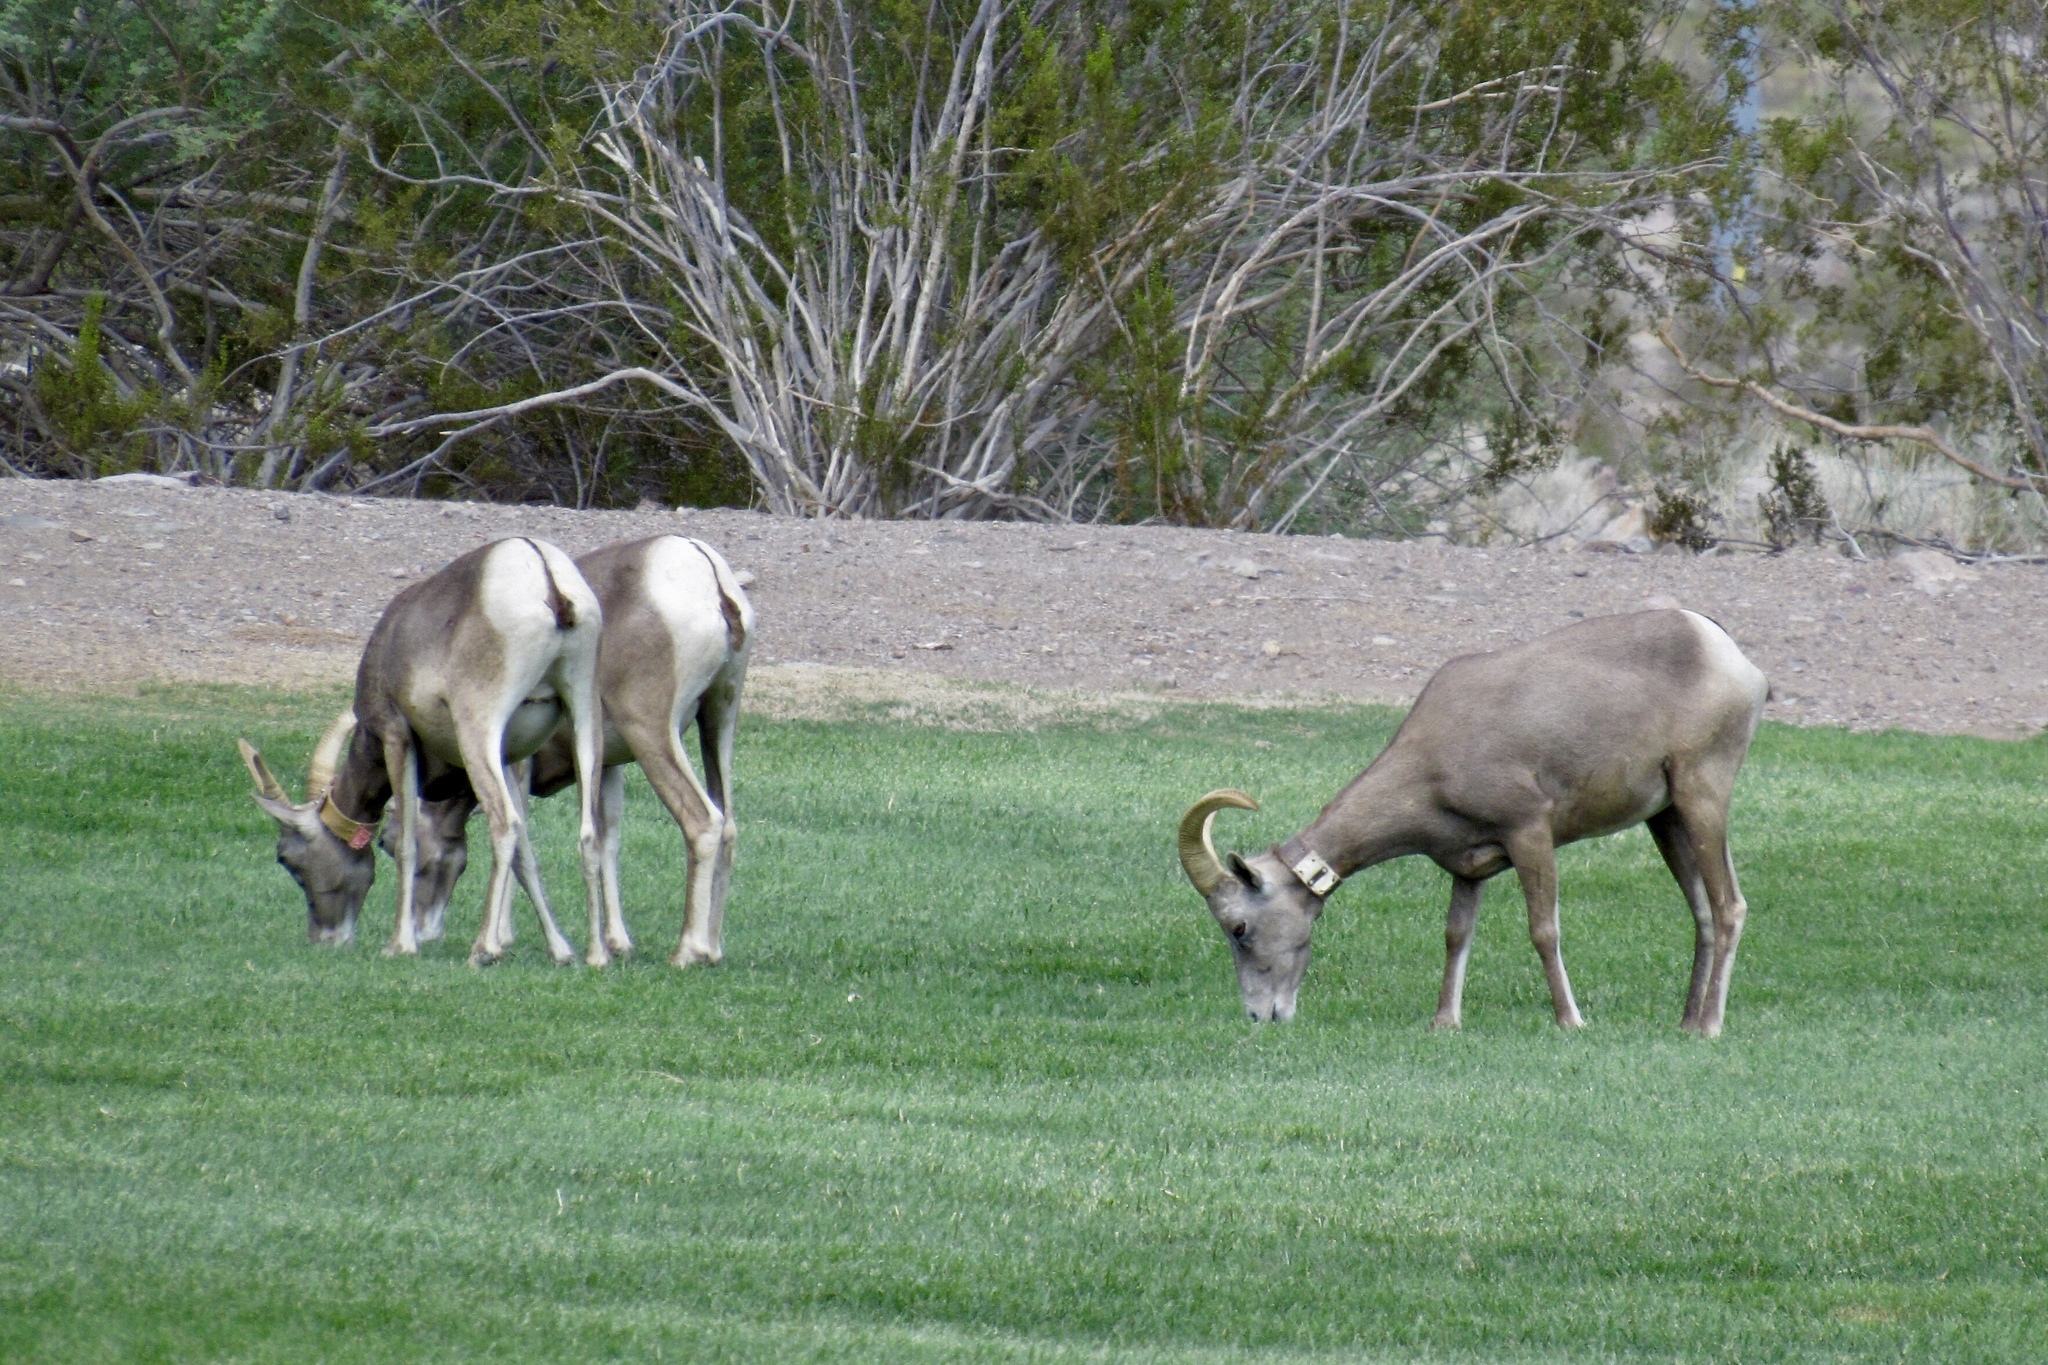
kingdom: Animalia
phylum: Chordata
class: Mammalia
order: Artiodactyla
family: Bovidae
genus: Ovis
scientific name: Ovis canadensis
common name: Bighorn sheep
